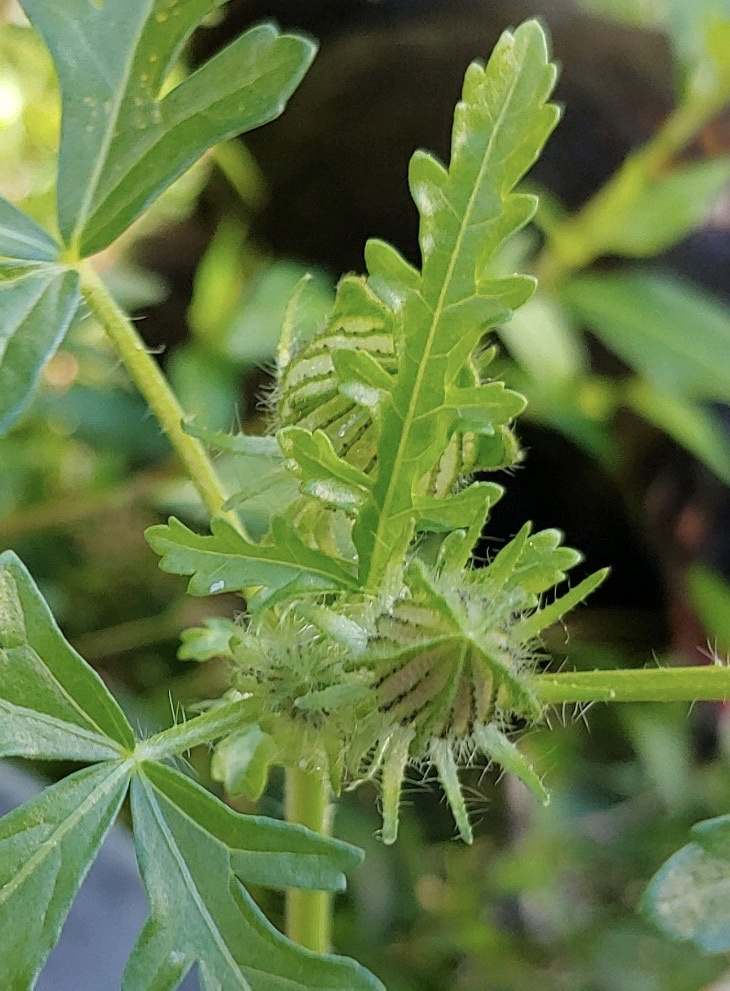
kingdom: Plantae
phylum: Tracheophyta
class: Magnoliopsida
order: Malvales
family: Malvaceae
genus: Hibiscus
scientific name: Hibiscus trionum
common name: Bladder ketmia
